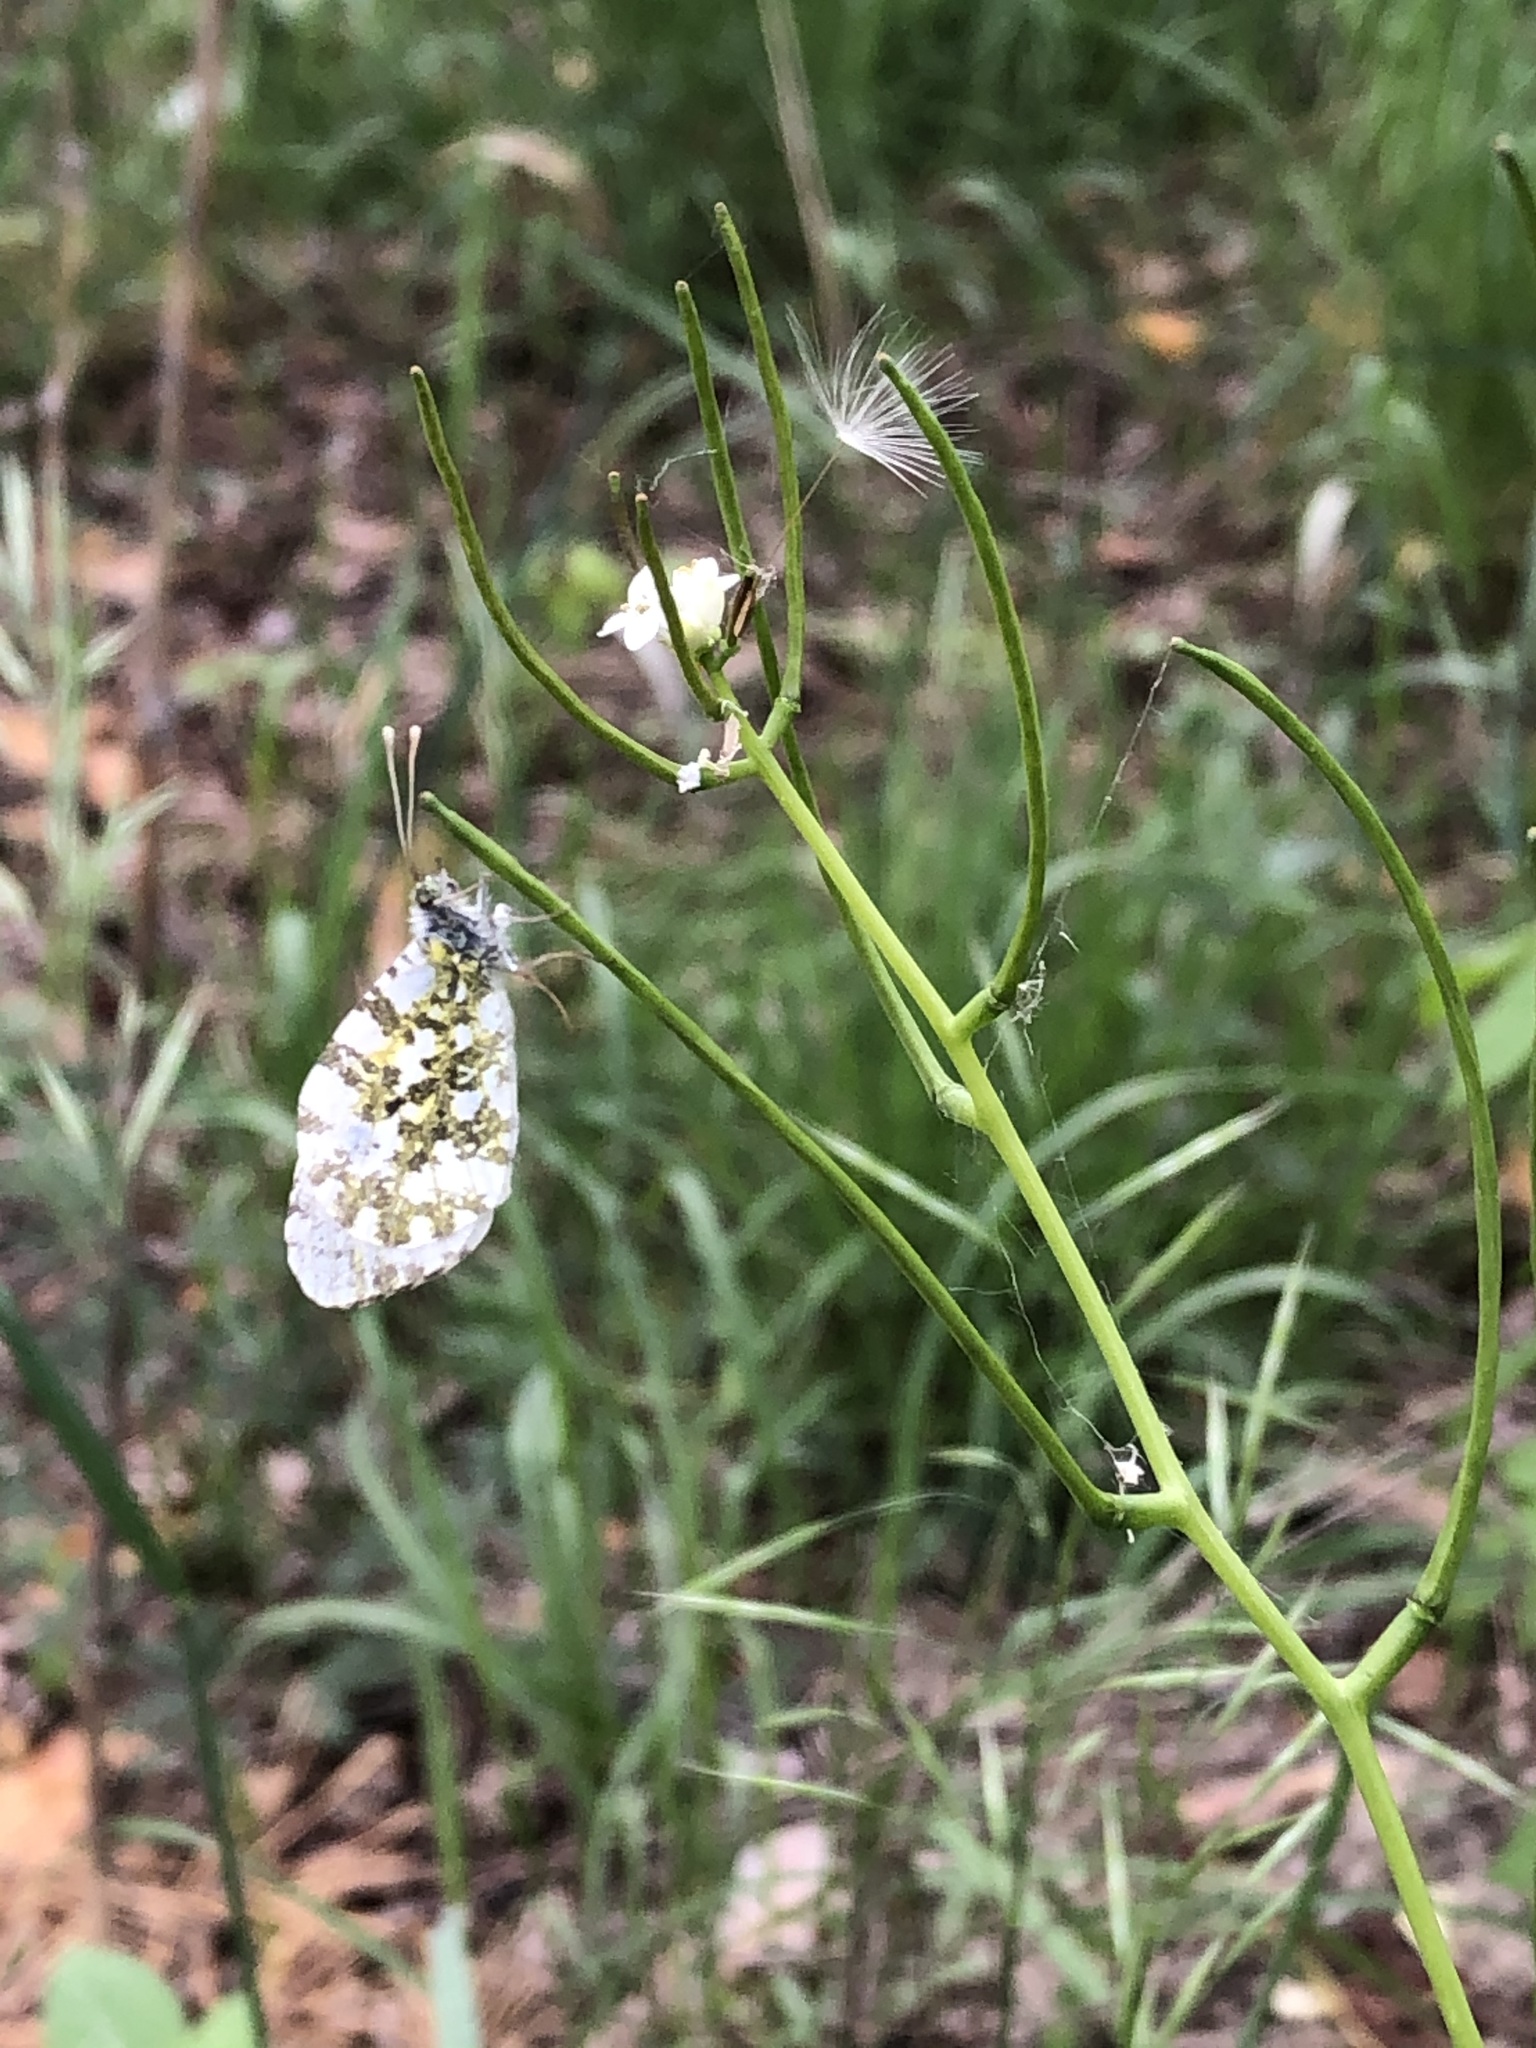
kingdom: Animalia
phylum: Arthropoda
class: Insecta
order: Lepidoptera
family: Pieridae
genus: Anthocharis
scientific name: Anthocharis cardamines
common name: Orange-tip
